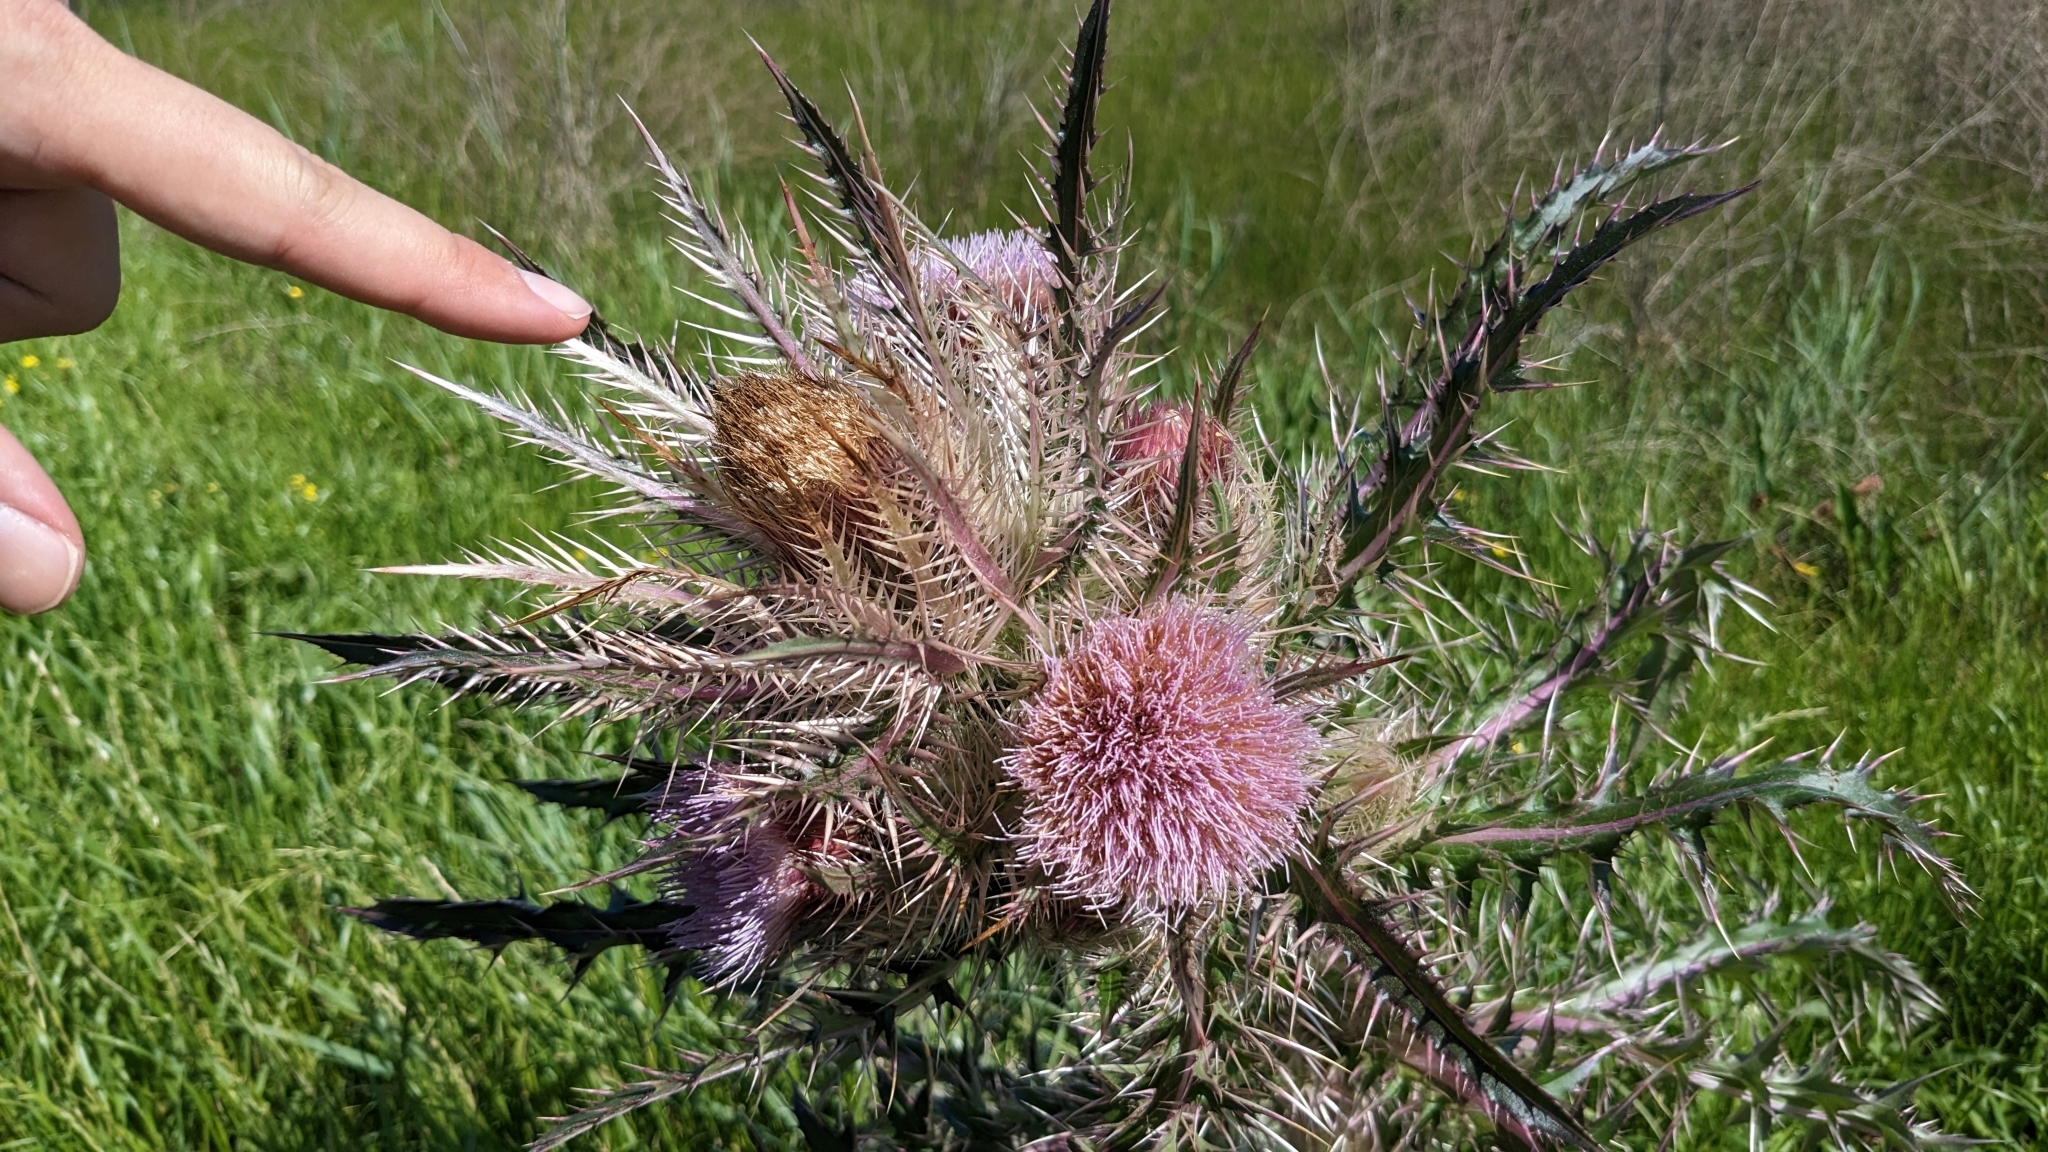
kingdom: Plantae
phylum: Tracheophyta
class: Magnoliopsida
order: Asterales
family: Asteraceae
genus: Cirsium
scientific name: Cirsium horridulum
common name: Bristly thistle
